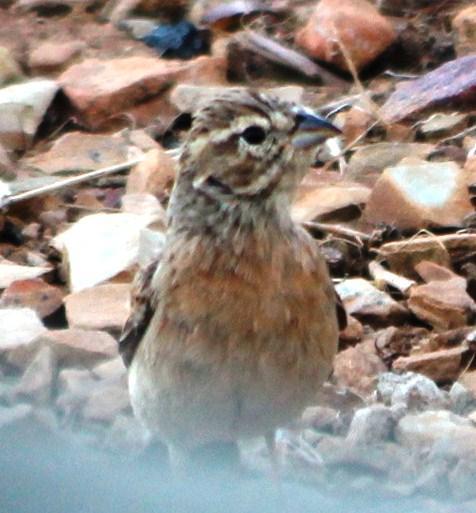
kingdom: Animalia
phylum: Chordata
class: Aves
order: Passeriformes
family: Emberizidae
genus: Emberiza
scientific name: Emberiza impetuani
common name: Lark-like bunting
